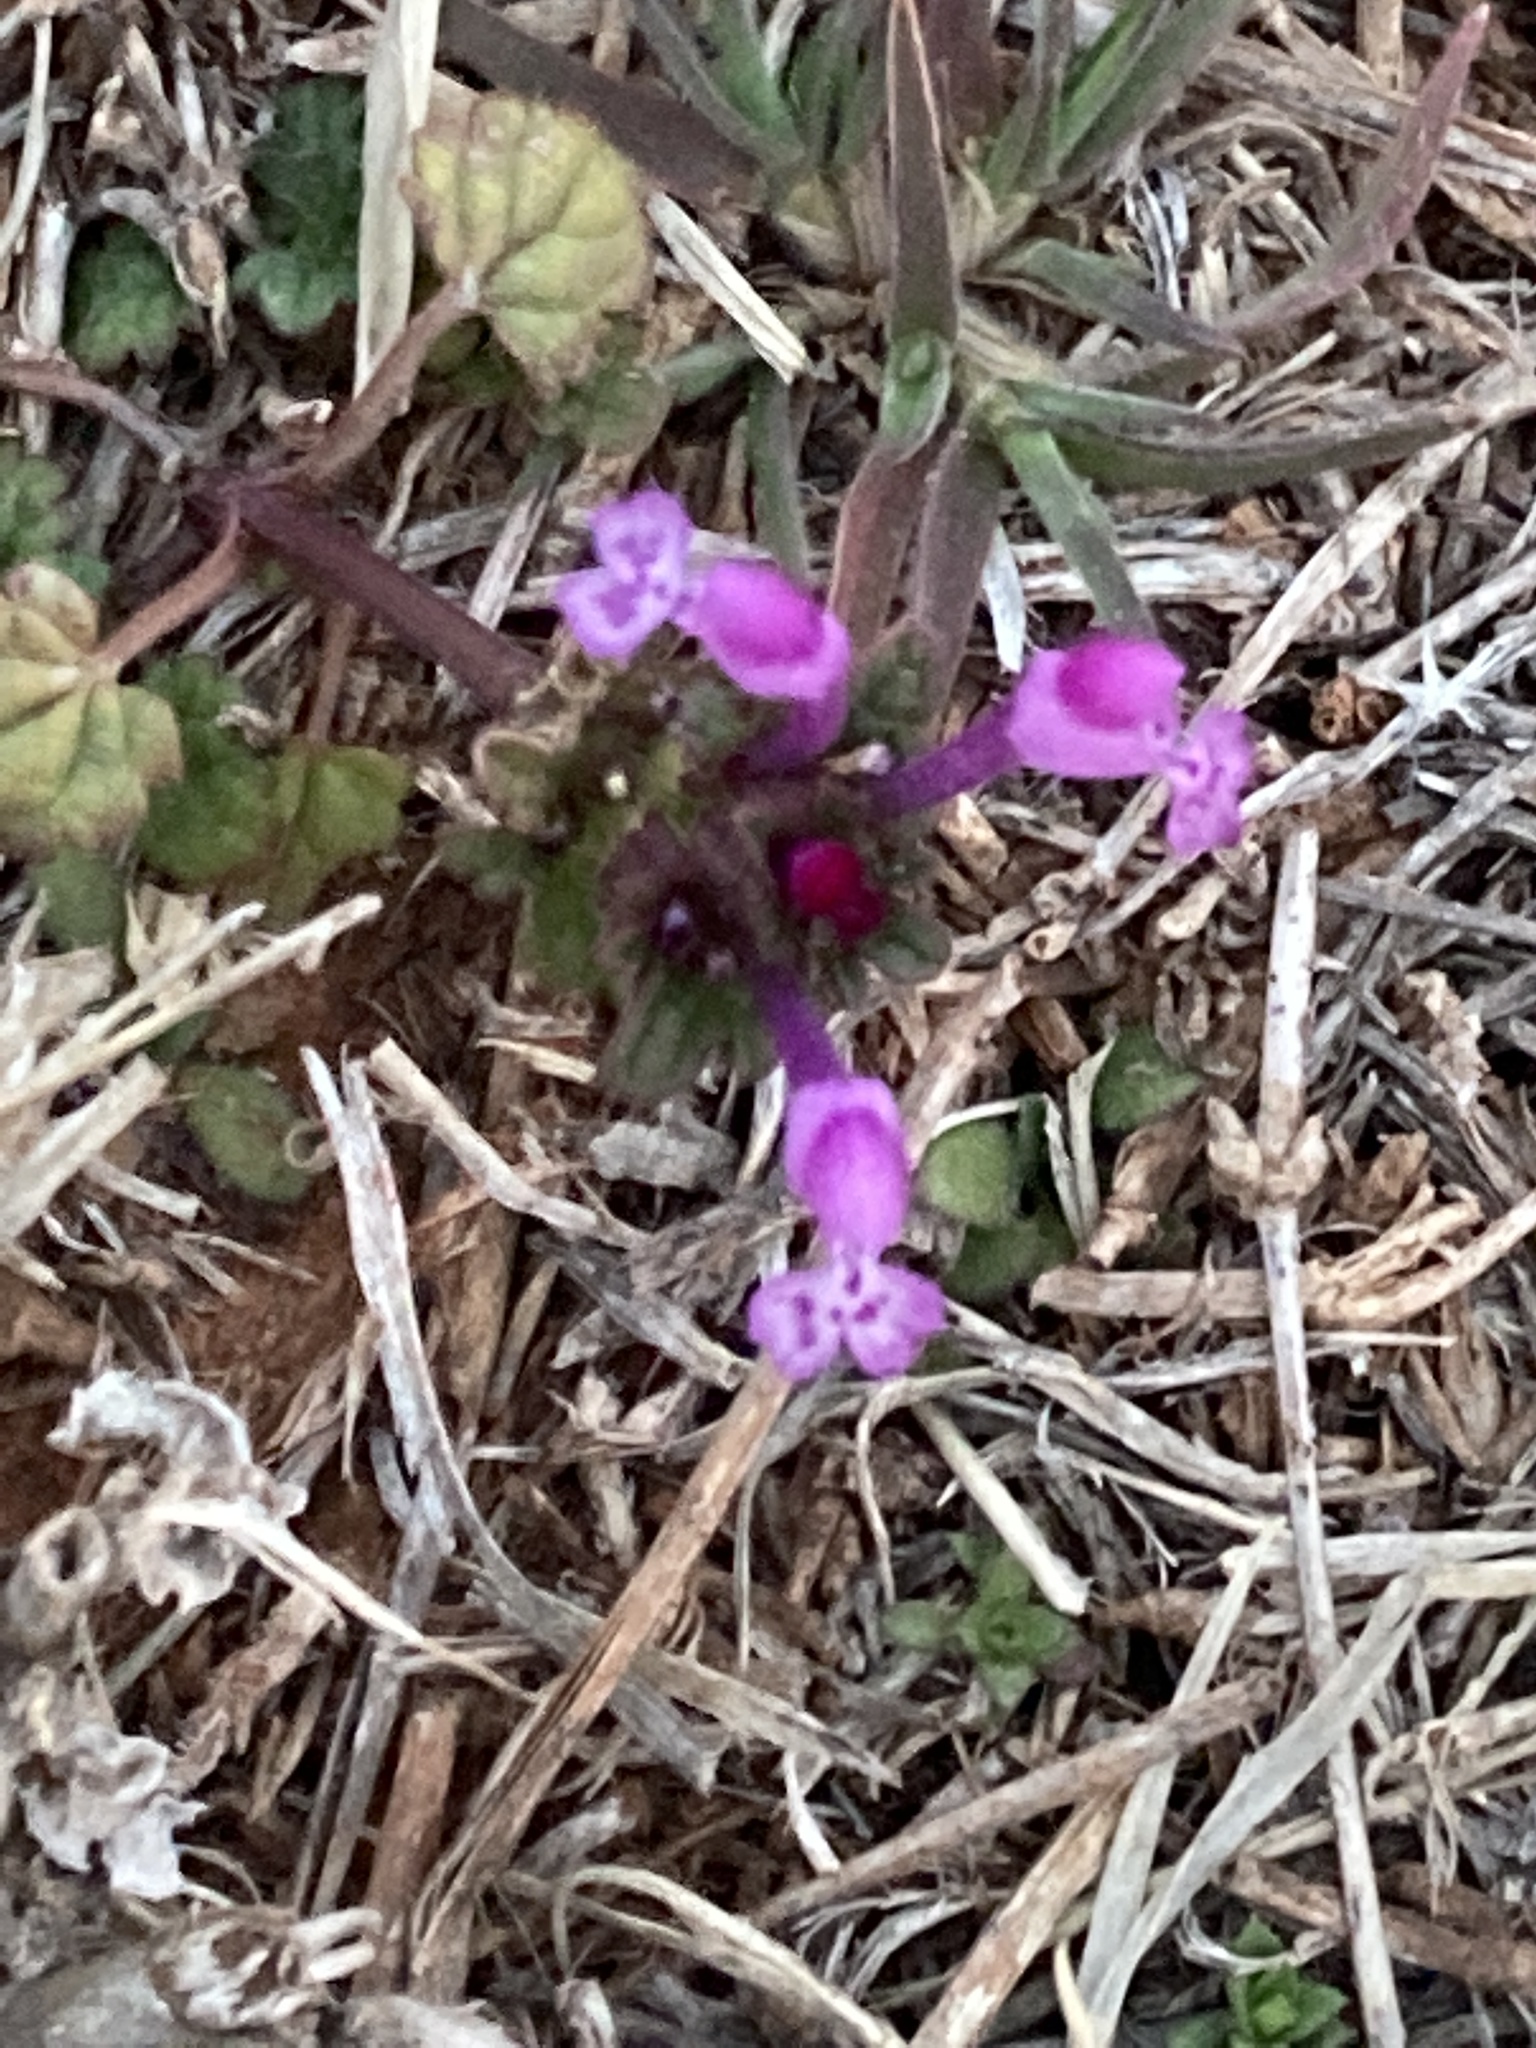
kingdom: Plantae
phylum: Tracheophyta
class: Magnoliopsida
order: Lamiales
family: Lamiaceae
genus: Lamium
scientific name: Lamium amplexicaule
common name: Henbit dead-nettle
